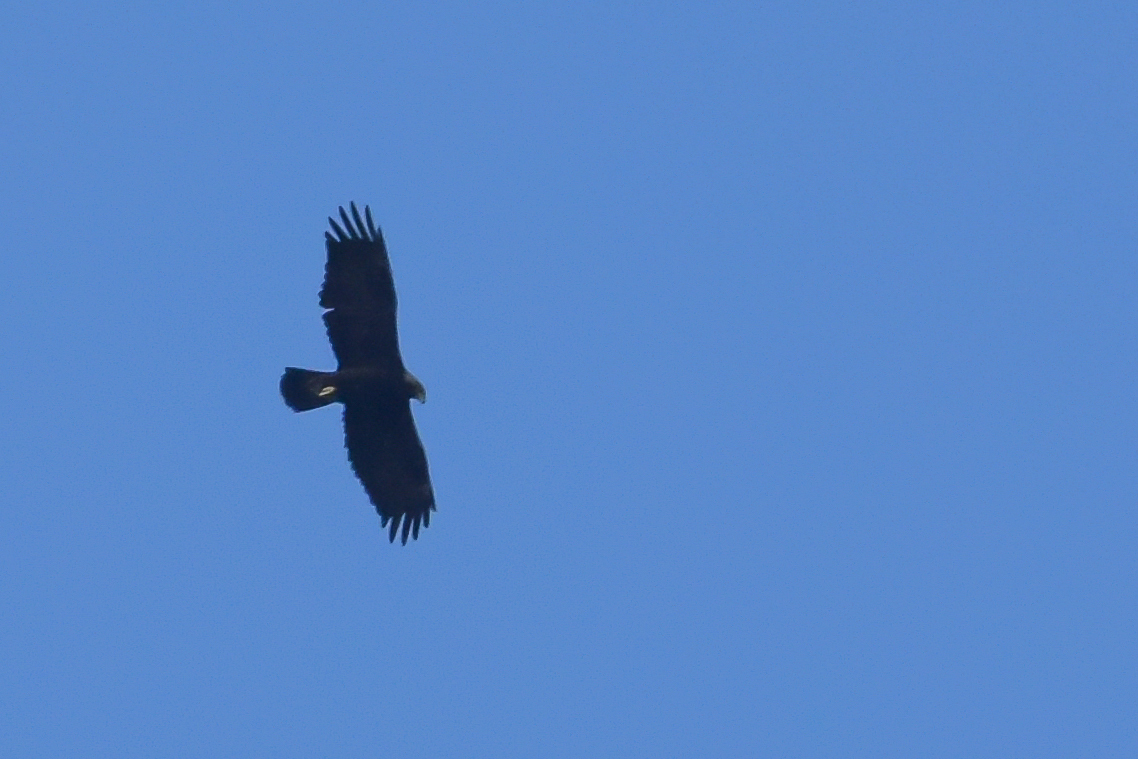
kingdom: Animalia
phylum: Chordata
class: Aves
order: Accipitriformes
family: Accipitridae
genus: Aquila
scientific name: Aquila chrysaetos
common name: Golden eagle
